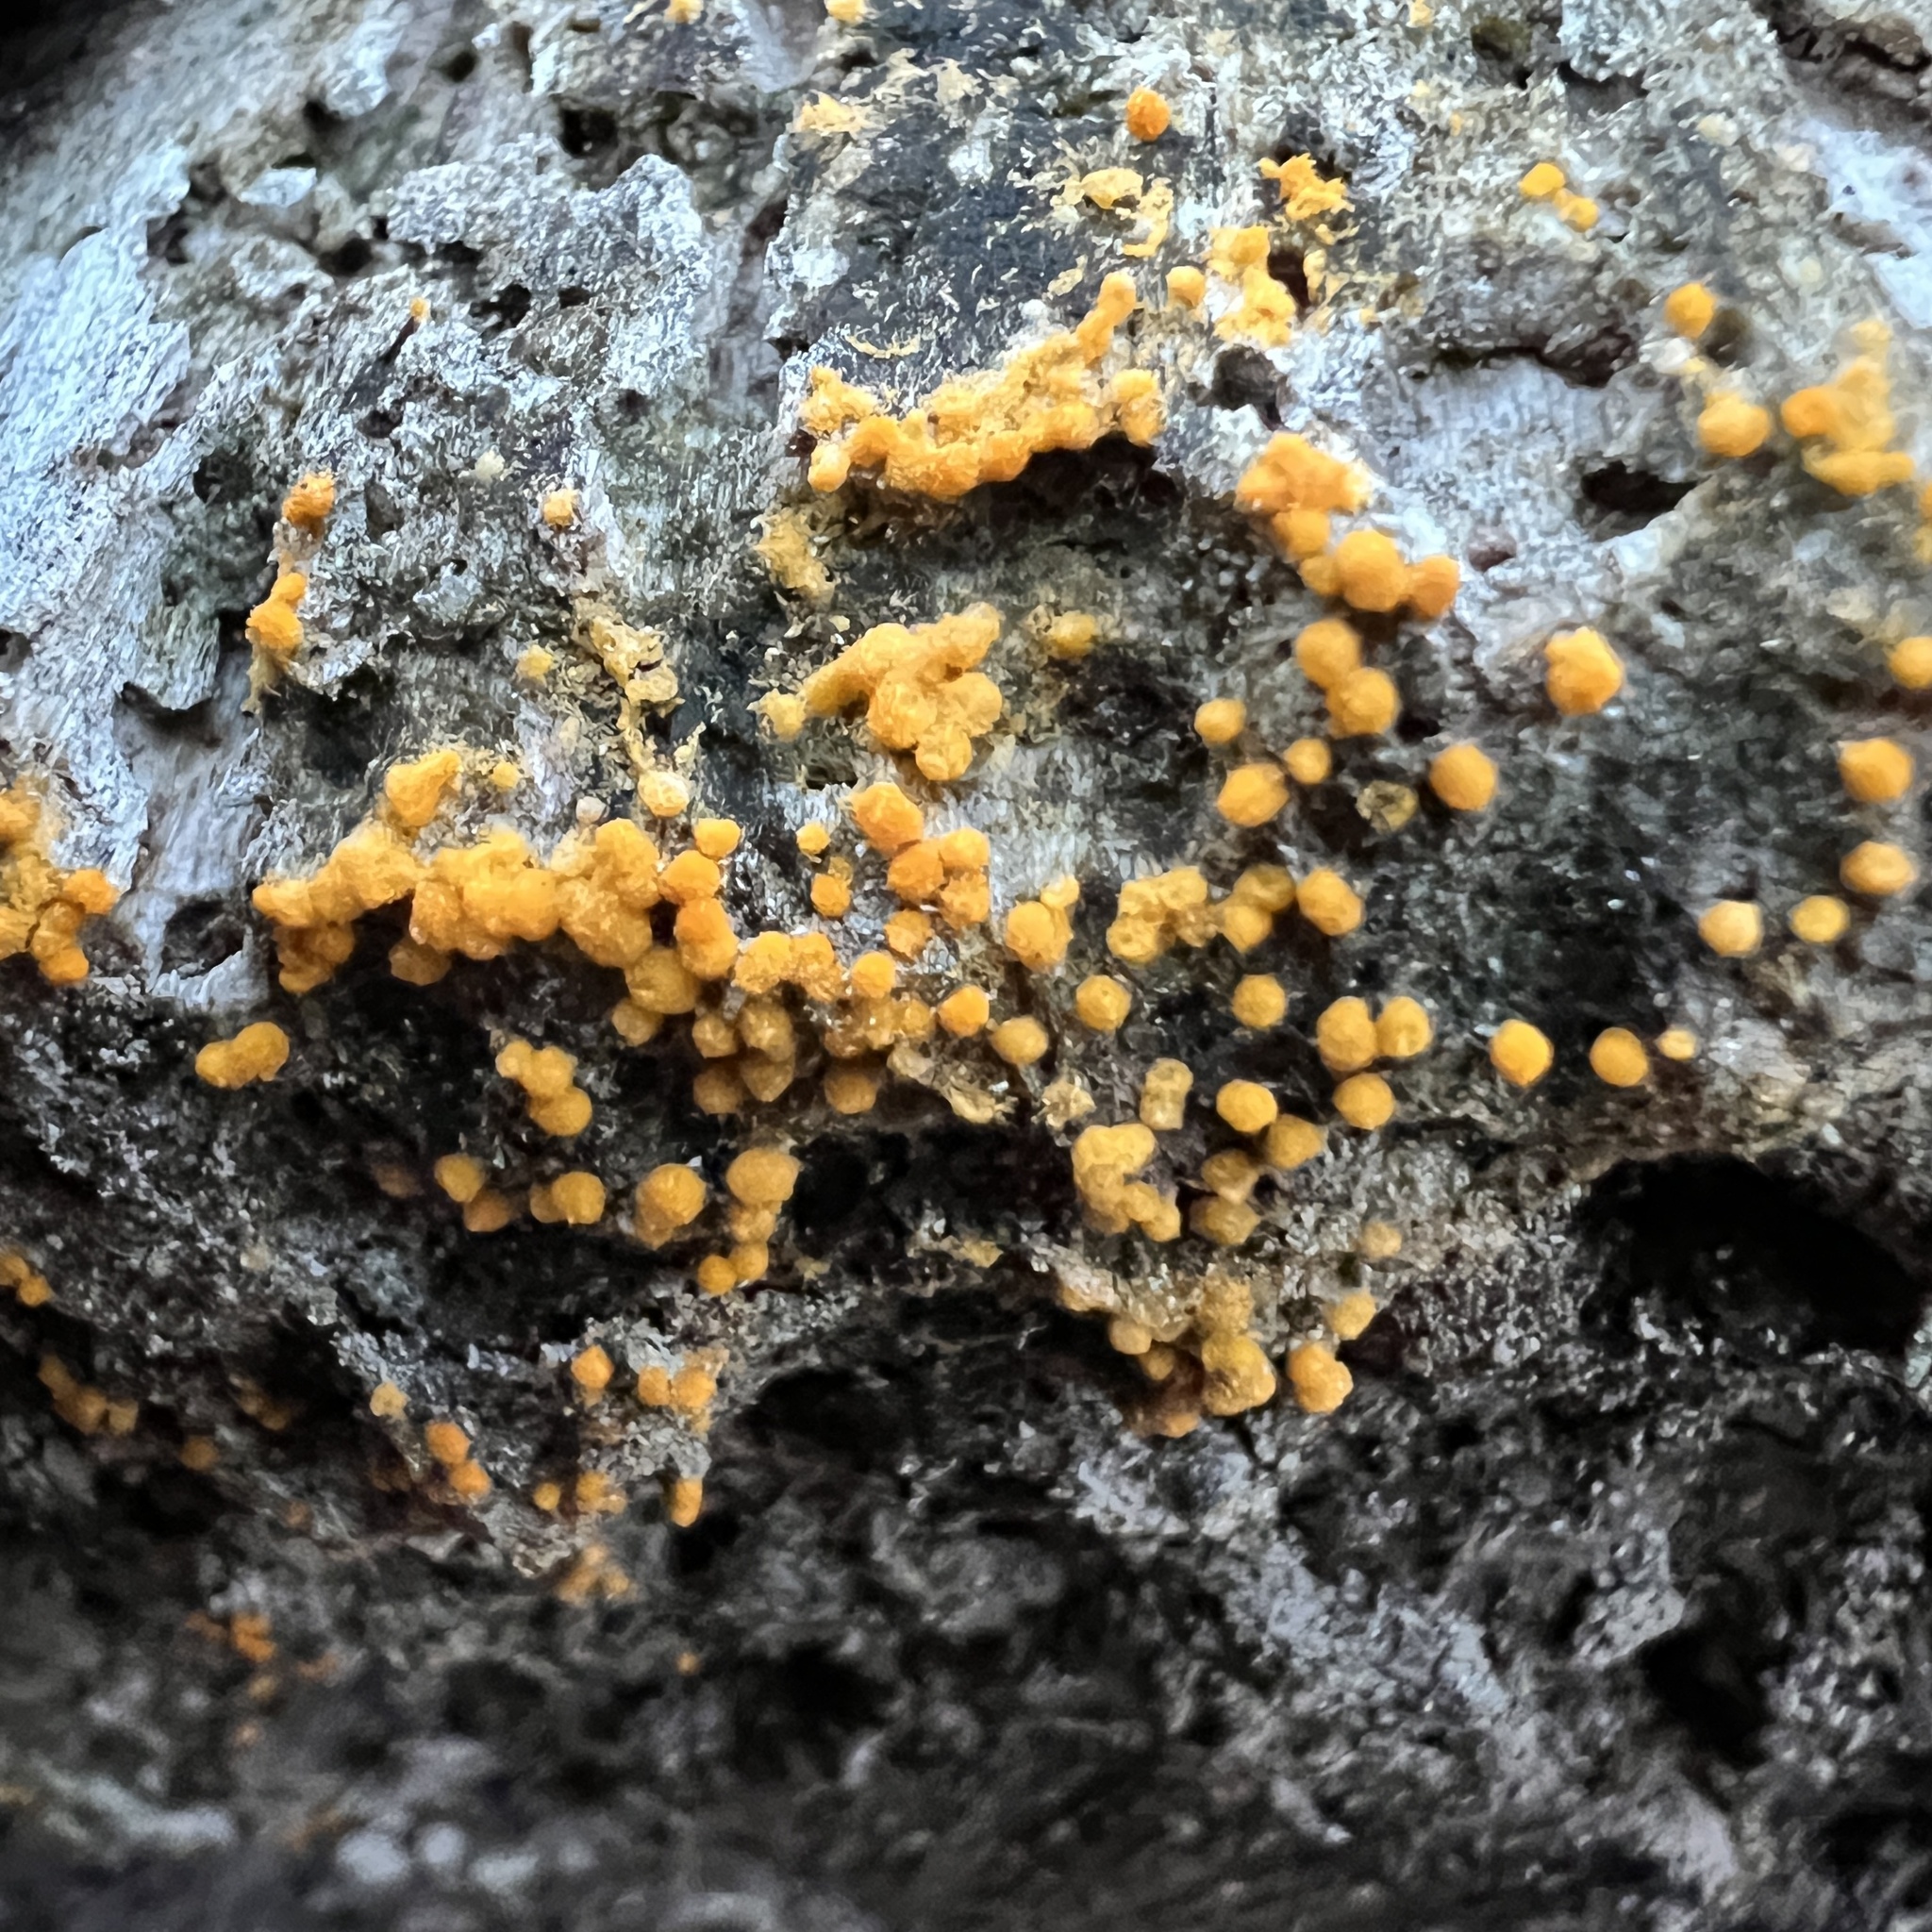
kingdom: Fungi
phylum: Ascomycota
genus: Bactridium
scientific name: Bactridium flavum
